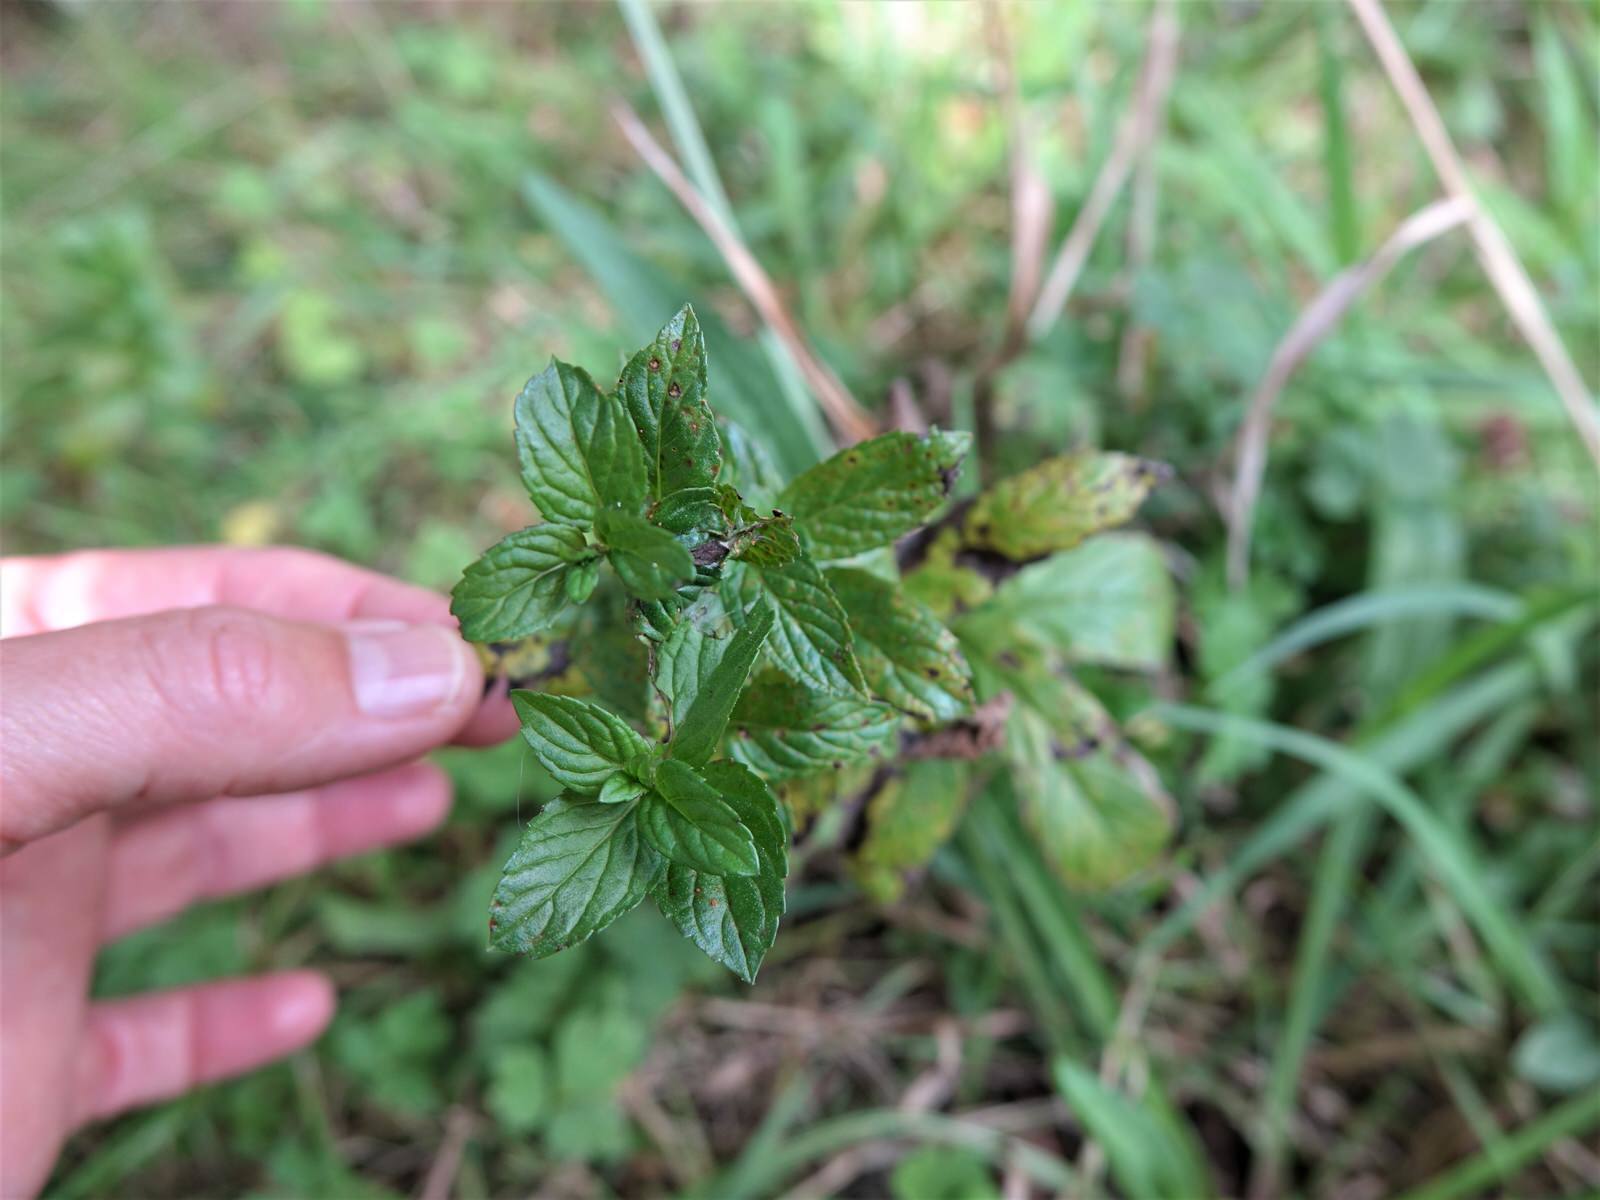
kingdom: Plantae
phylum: Tracheophyta
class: Magnoliopsida
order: Lamiales
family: Lamiaceae
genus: Mentha
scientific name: Mentha piperita
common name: Peppermint
